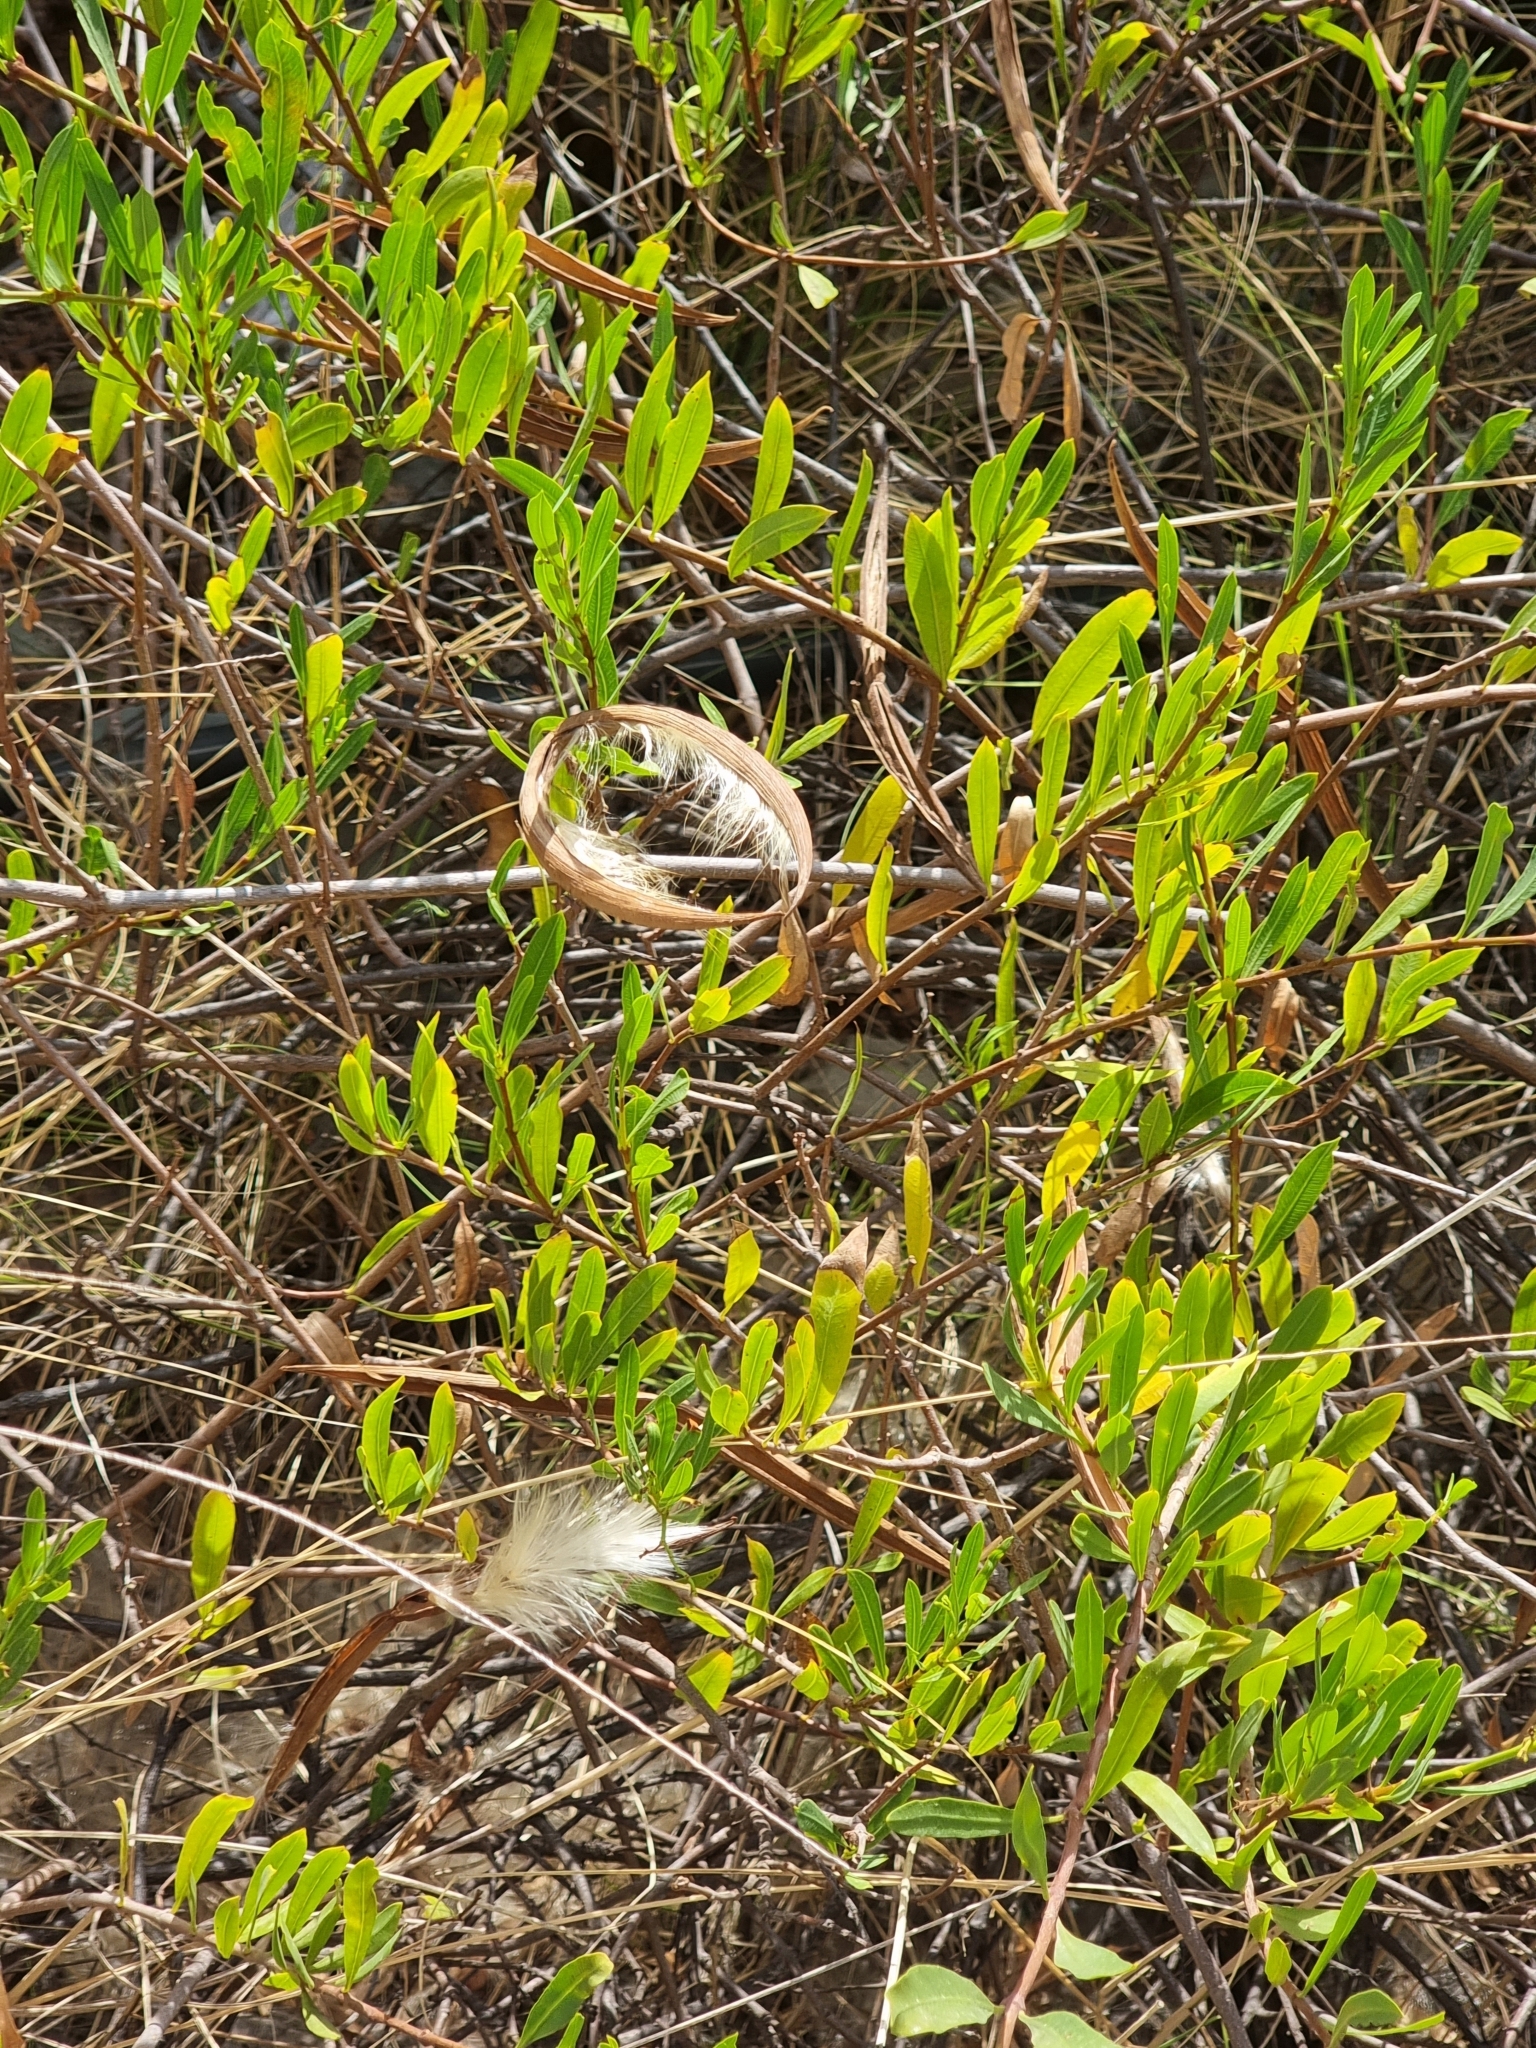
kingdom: Plantae
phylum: Tracheophyta
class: Magnoliopsida
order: Gentianales
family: Apocynaceae
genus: Periploca
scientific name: Periploca laevigata
